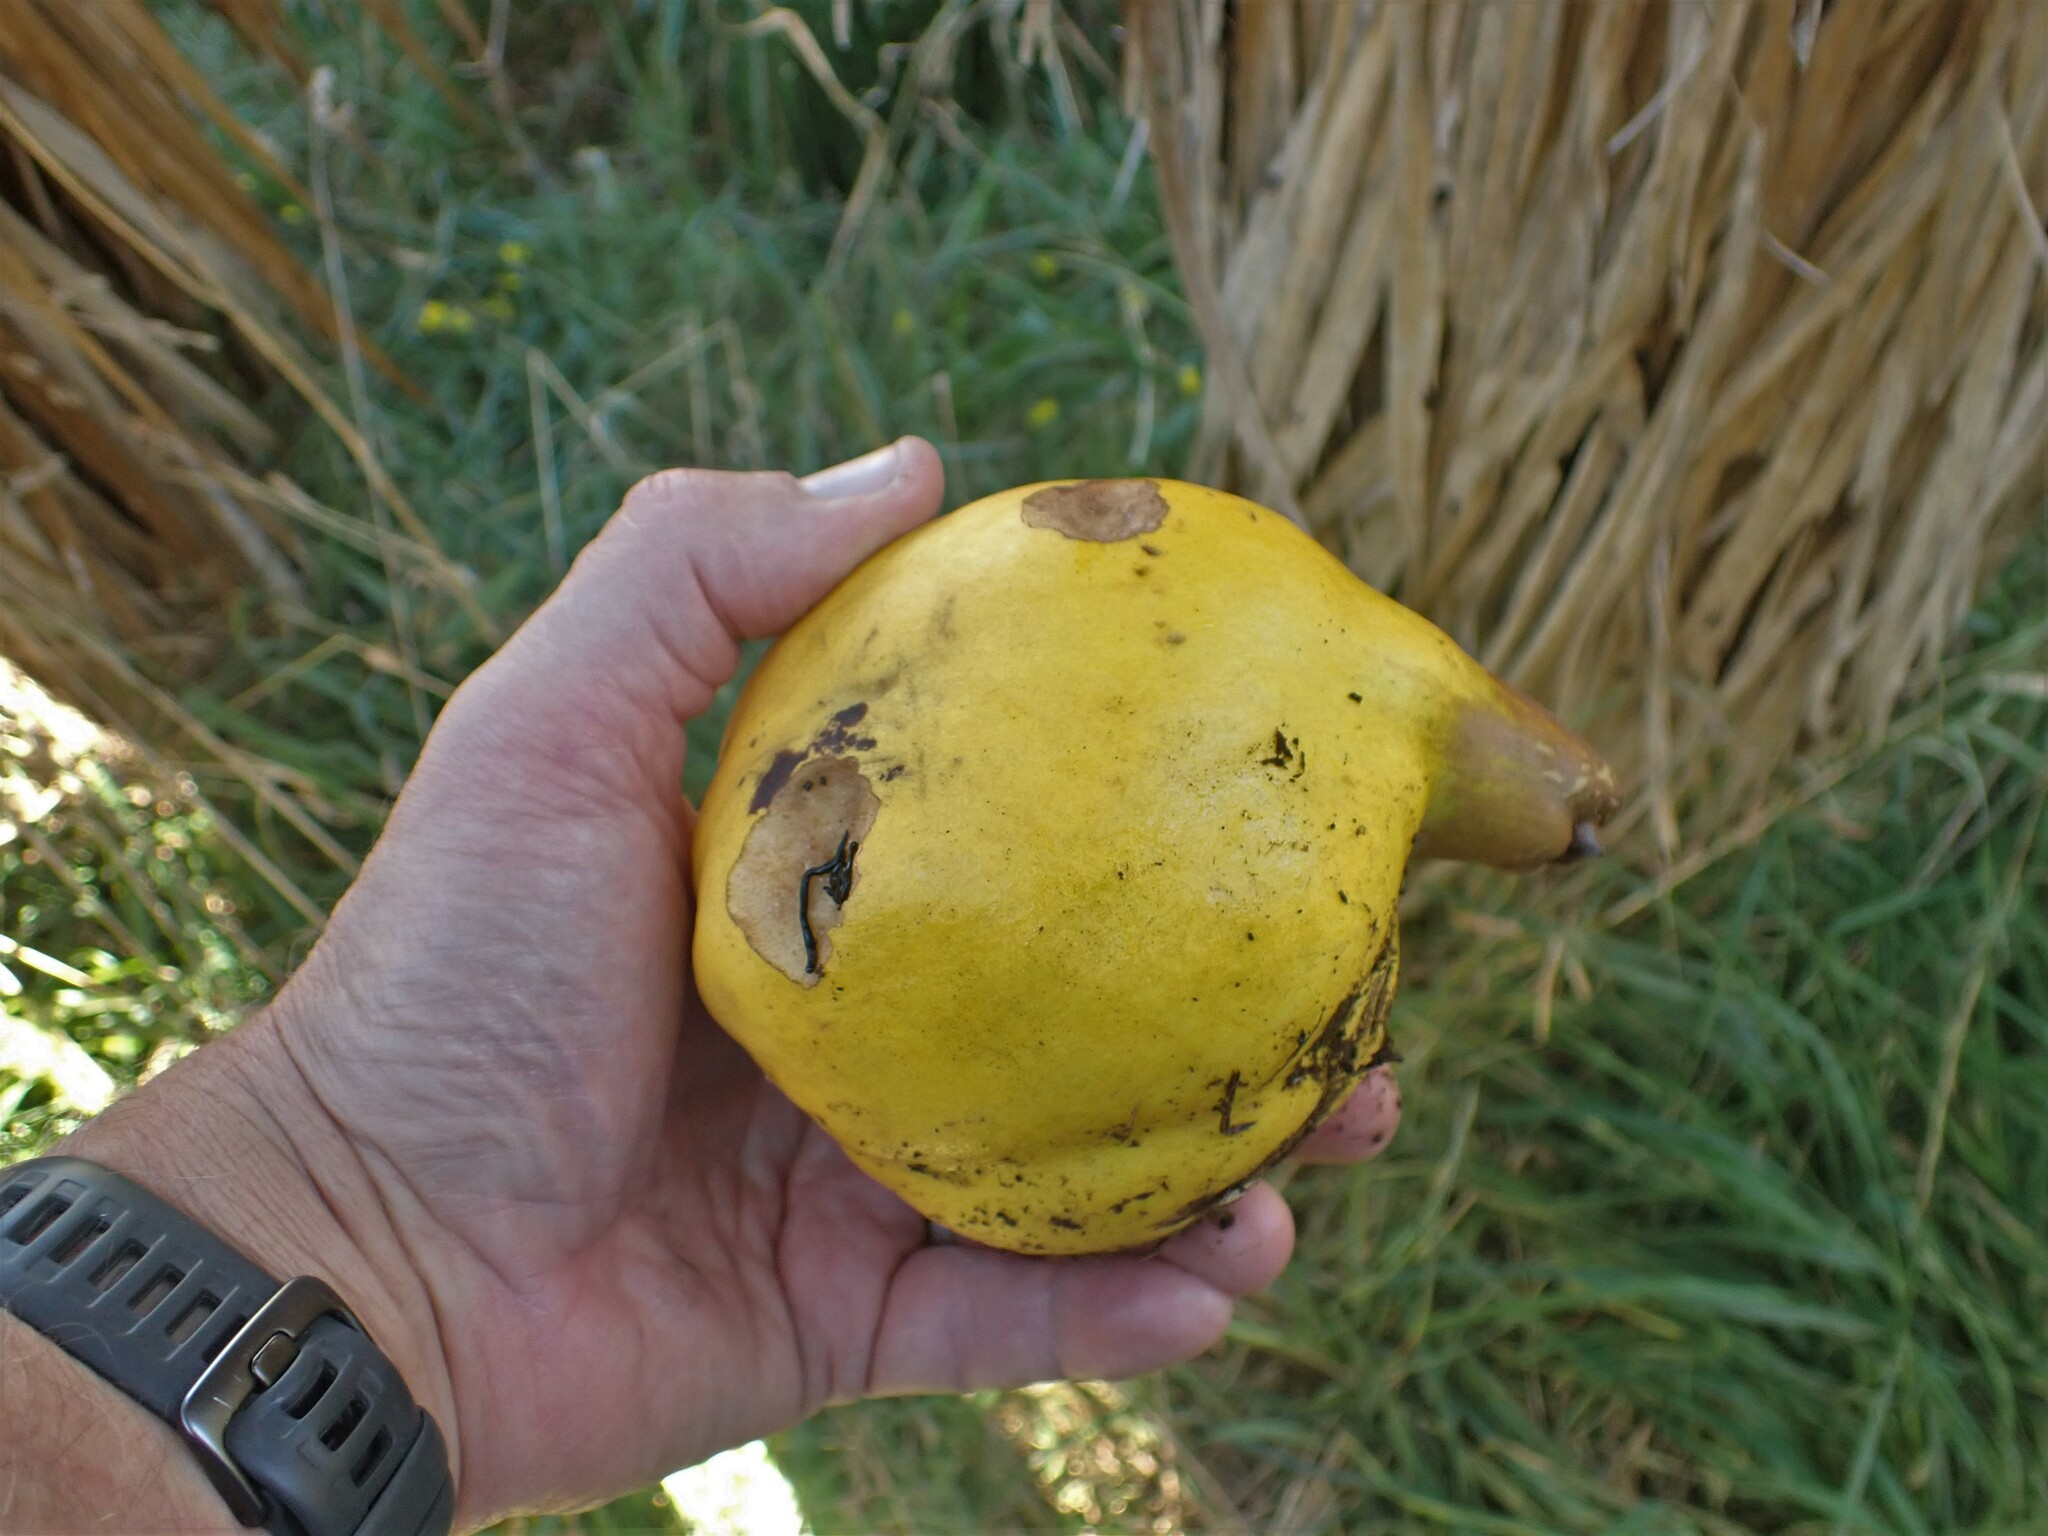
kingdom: Plantae
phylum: Tracheophyta
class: Magnoliopsida
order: Rosales
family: Rosaceae
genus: Cydonia
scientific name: Cydonia oblonga
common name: Quince
